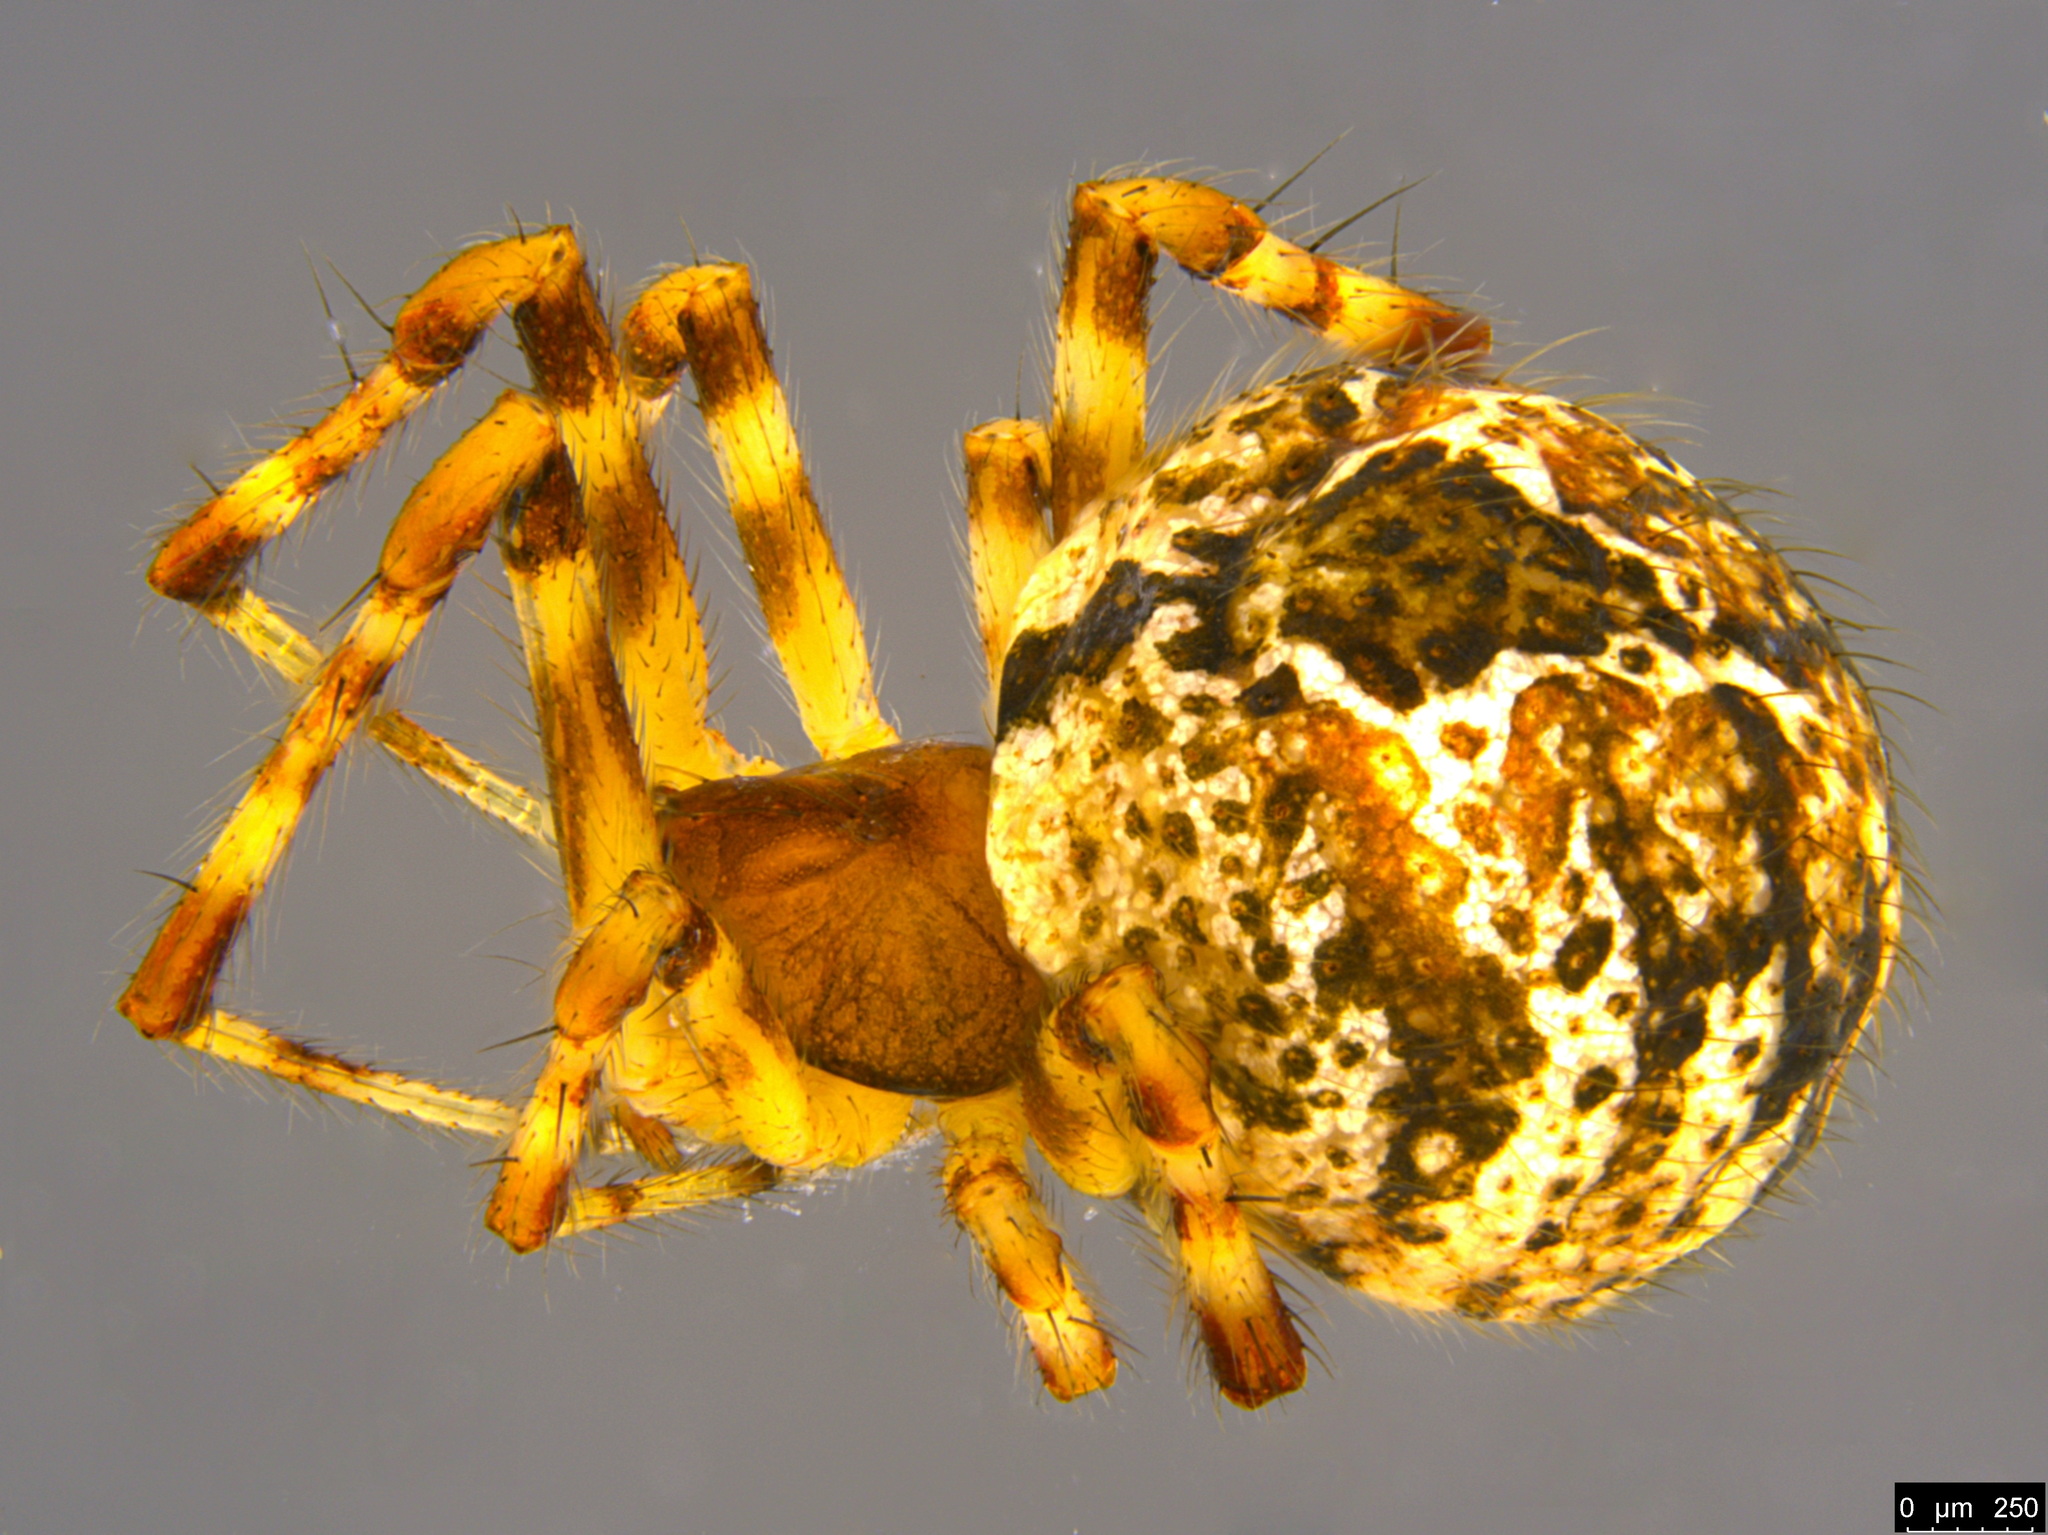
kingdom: Animalia
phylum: Arthropoda
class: Arachnida
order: Araneae
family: Theridiidae
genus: Cryptachaea
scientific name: Cryptachaea veruculata
